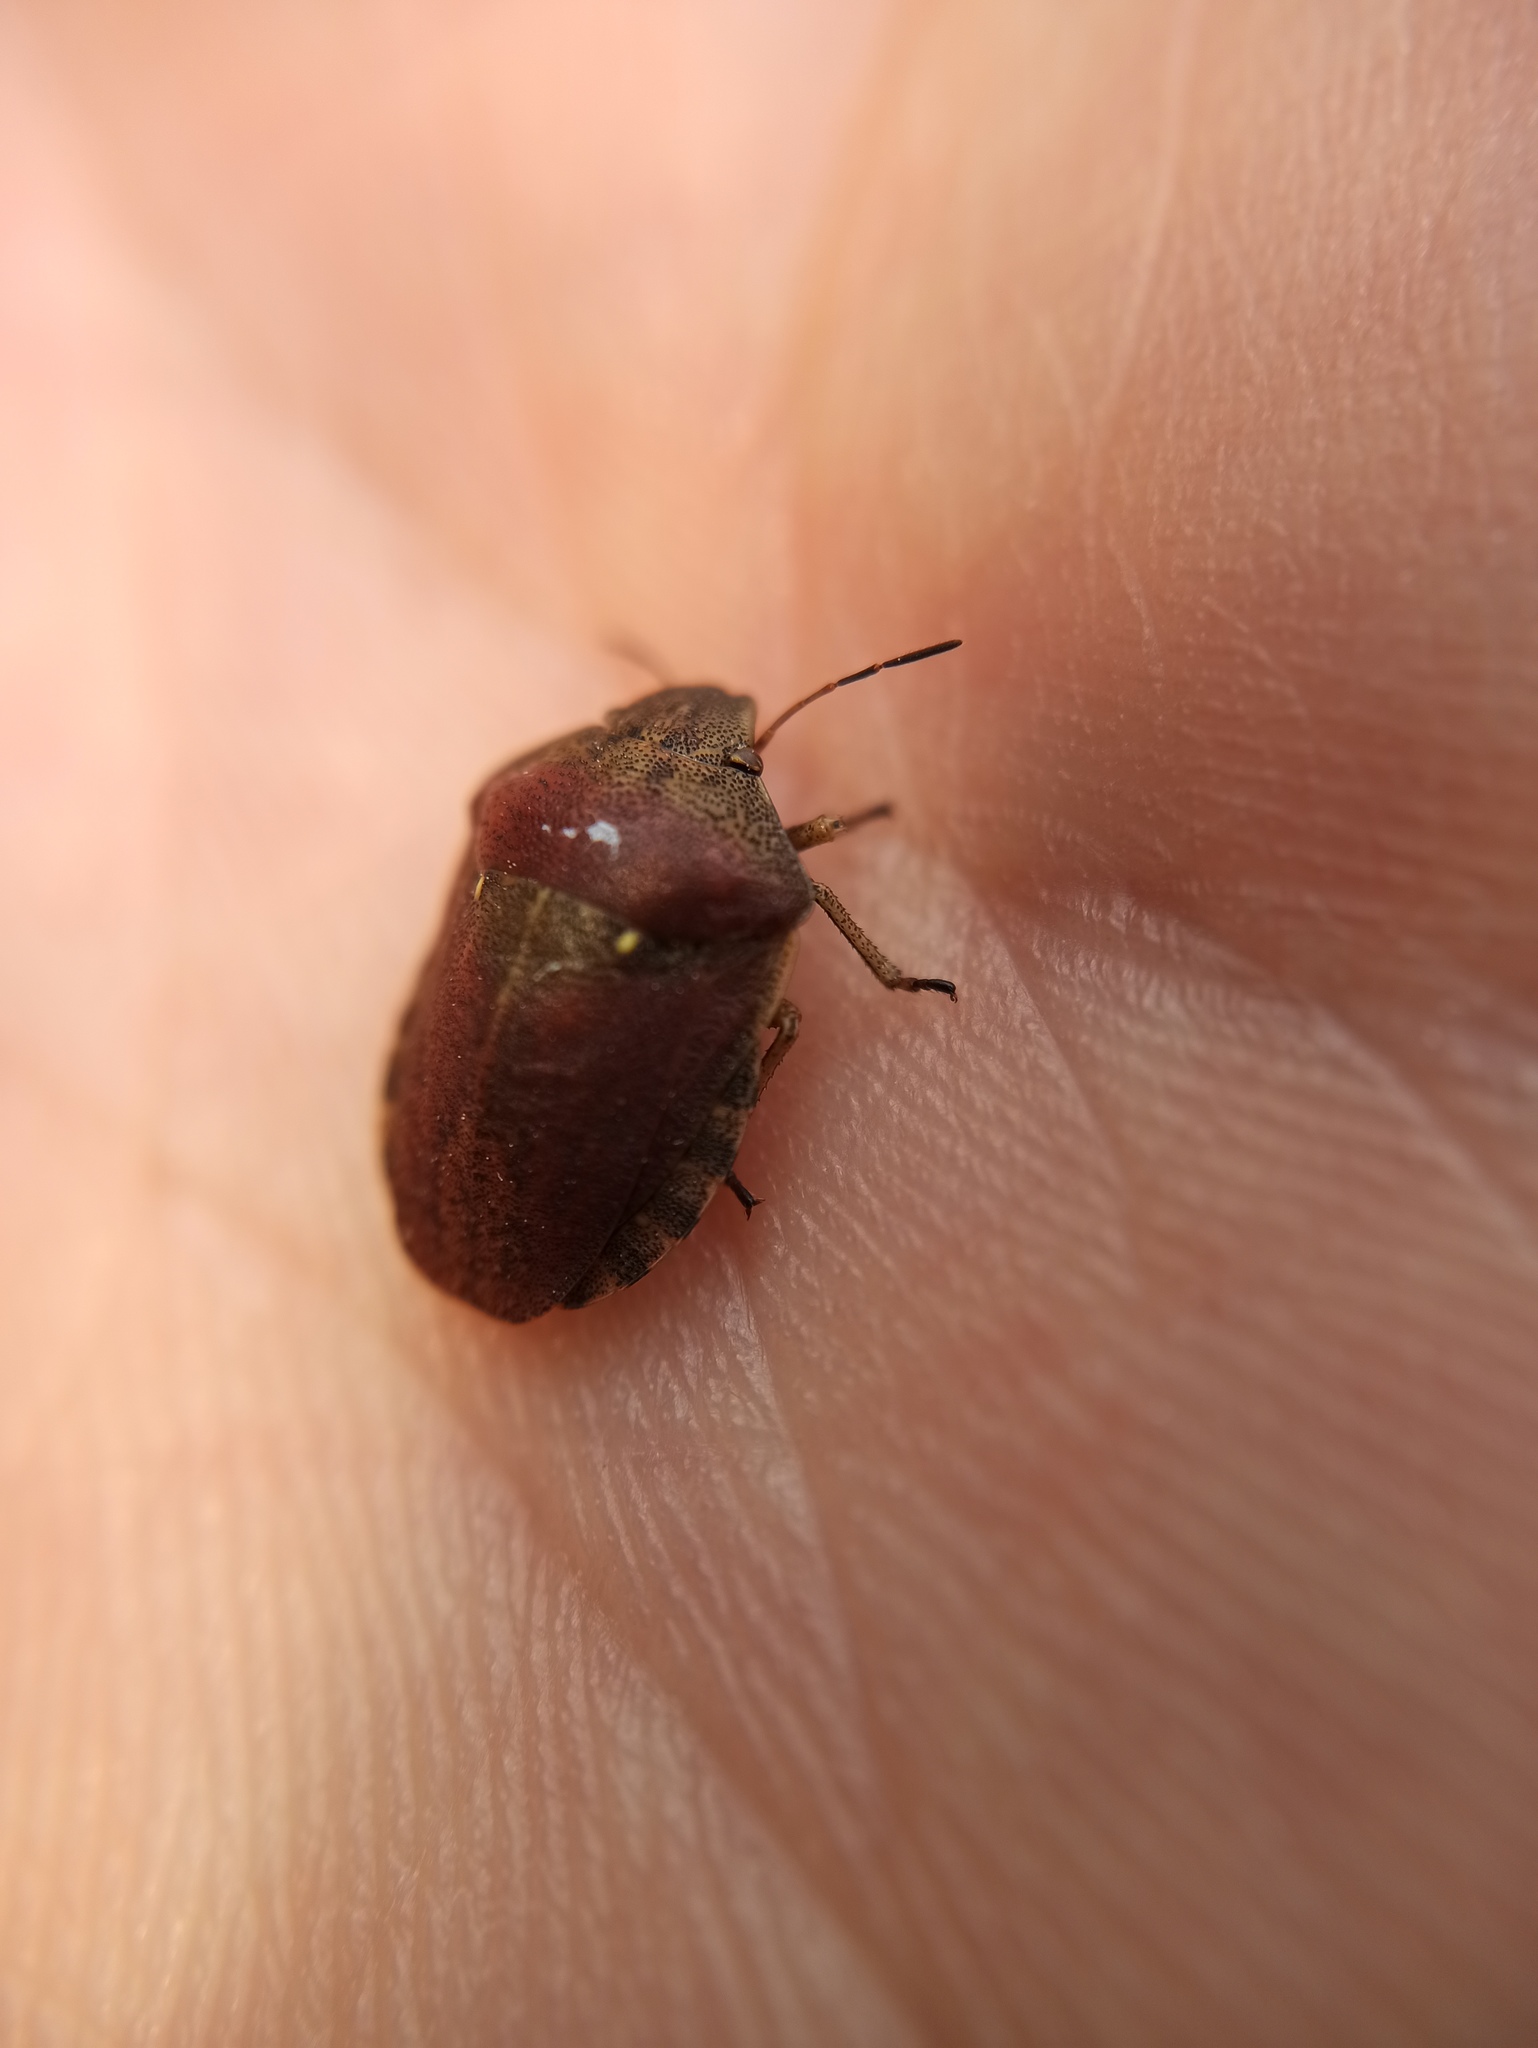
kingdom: Animalia
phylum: Arthropoda
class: Insecta
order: Hemiptera
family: Scutelleridae
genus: Eurygaster
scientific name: Eurygaster testudinaria
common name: Tortoise bug
